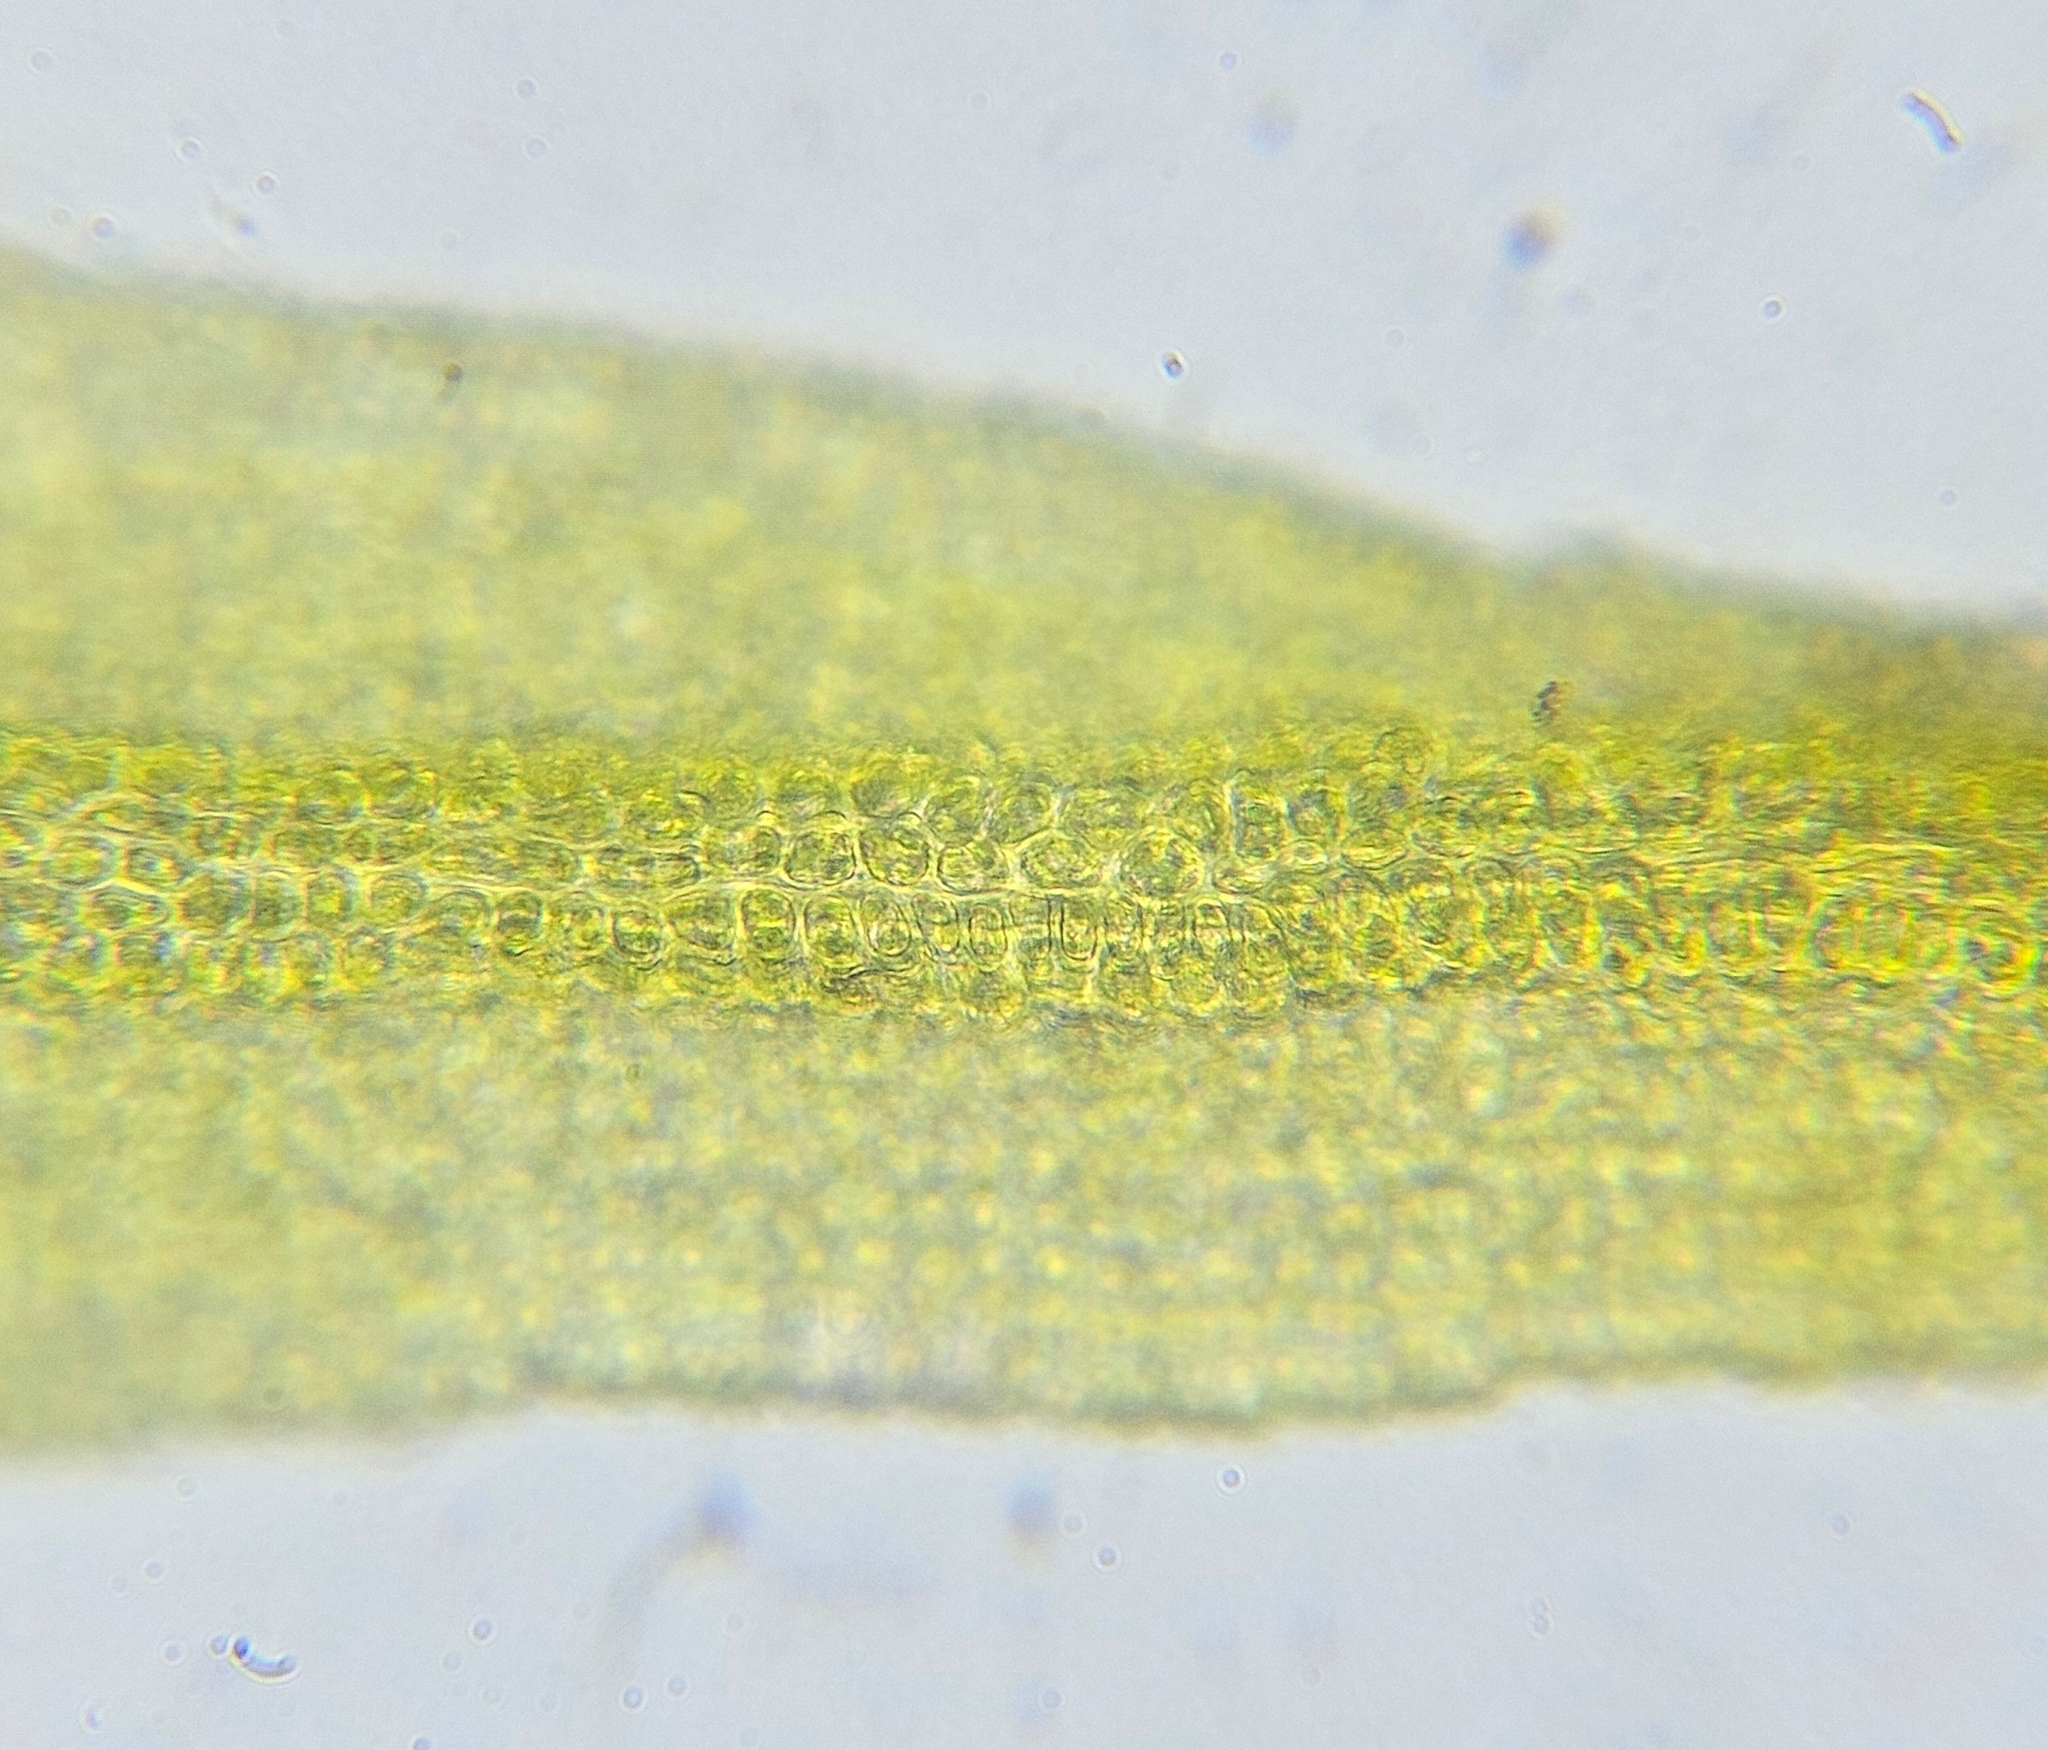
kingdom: Plantae
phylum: Bryophyta
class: Bryopsida
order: Pottiales
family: Pottiaceae
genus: Vinealobryum
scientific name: Vinealobryum insulanum
